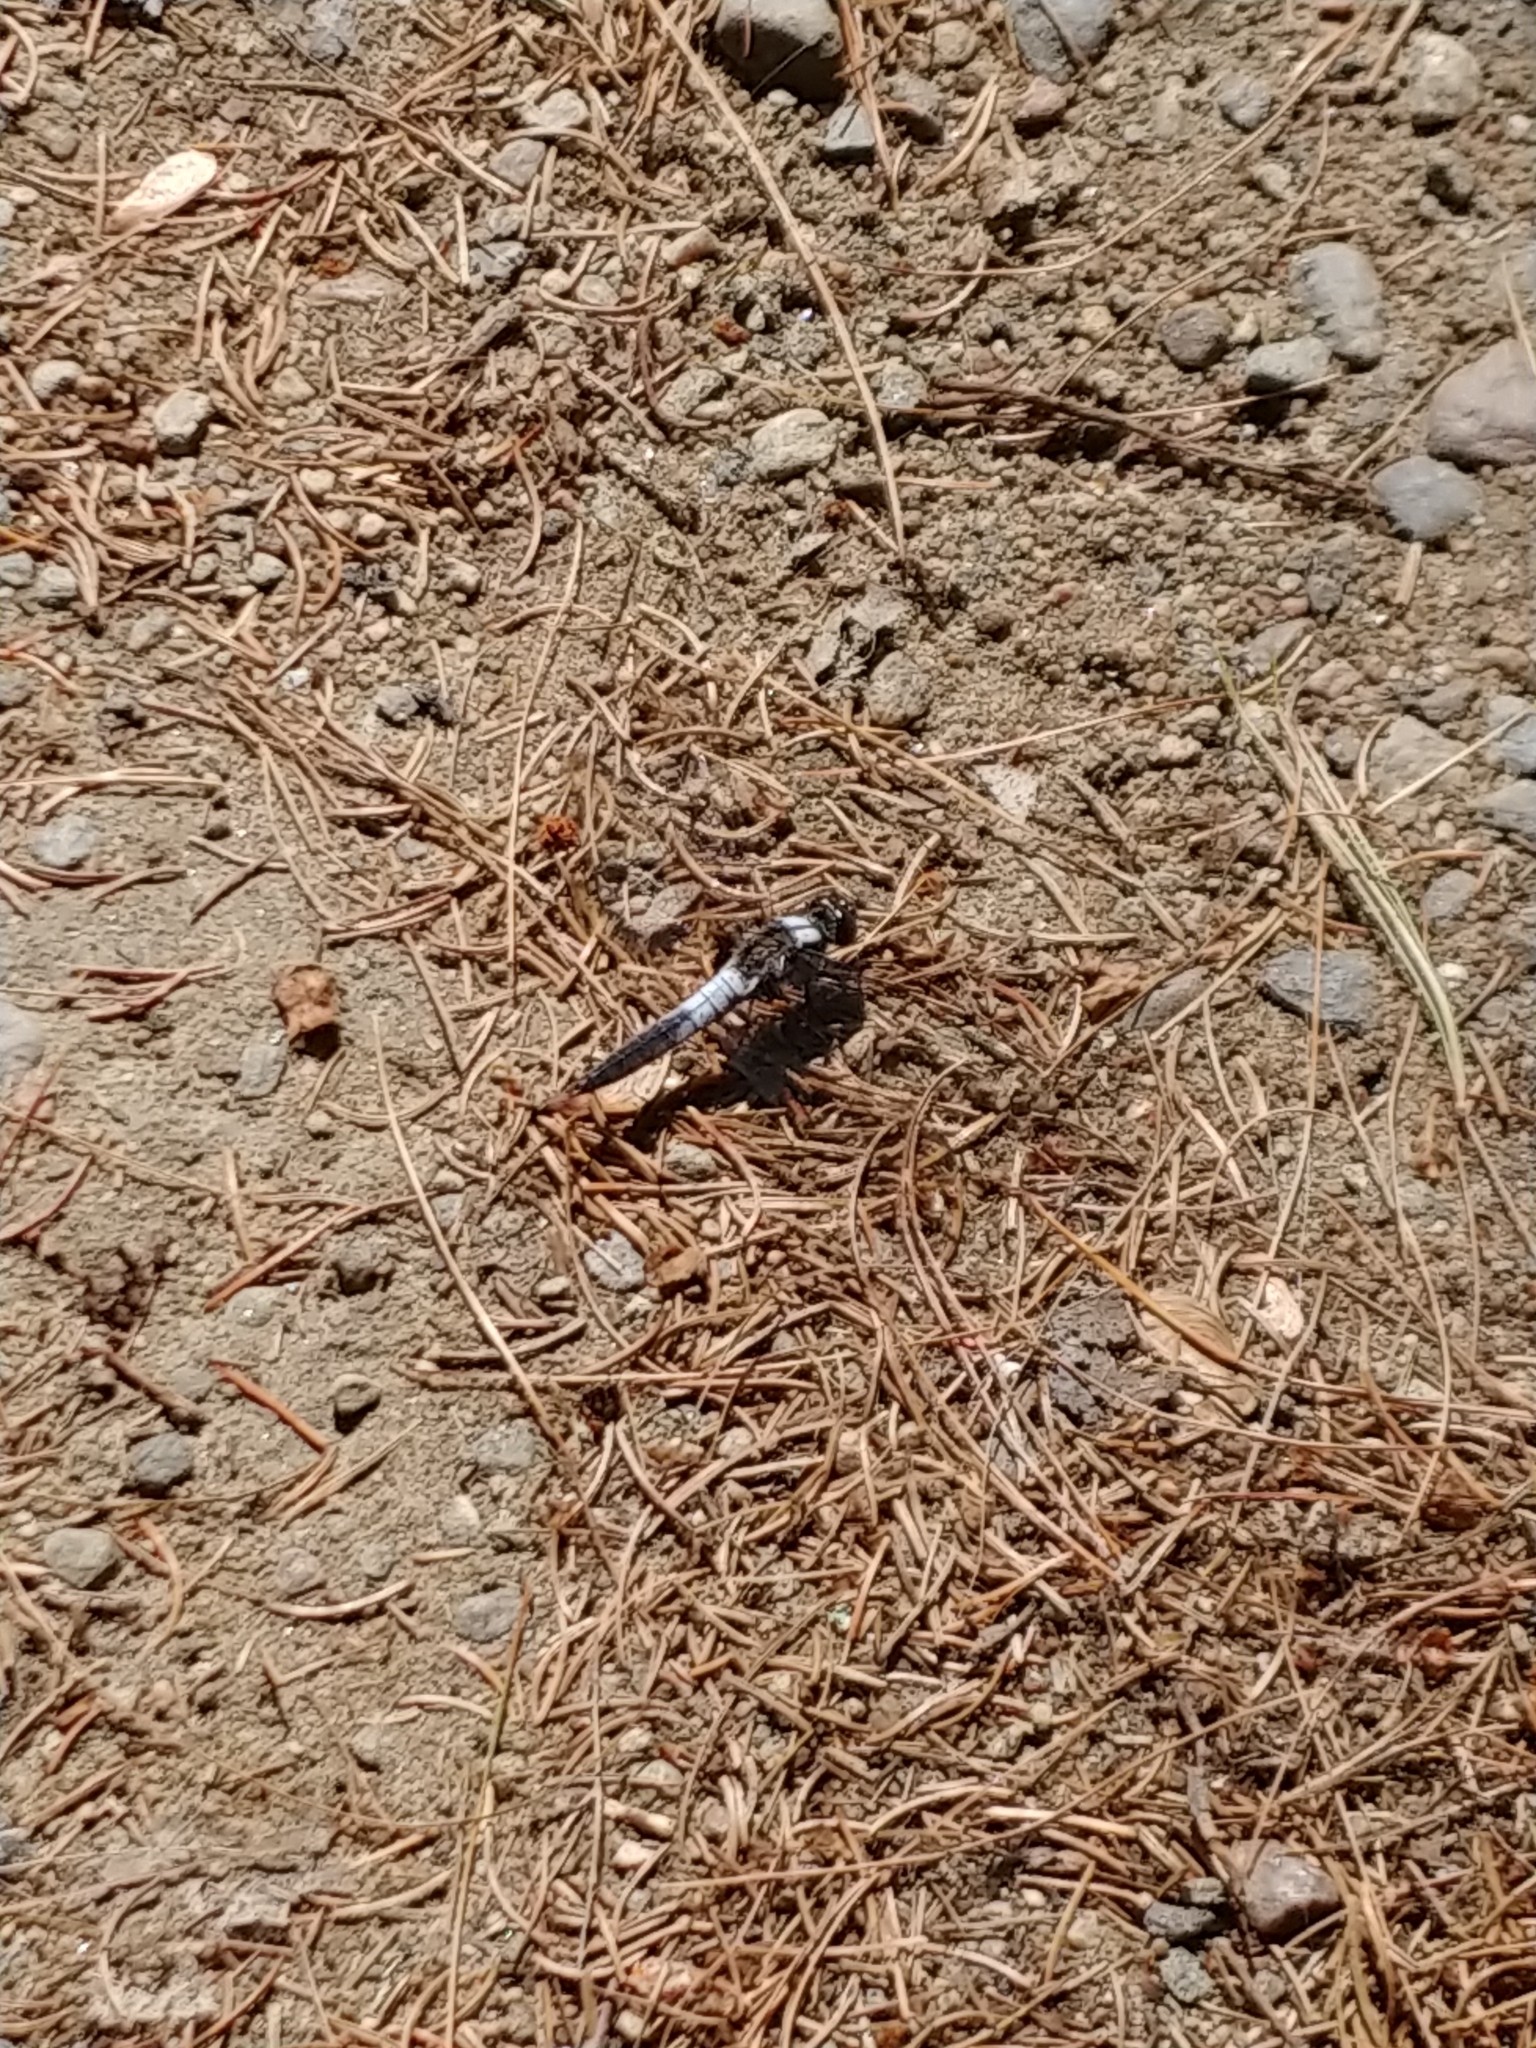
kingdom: Animalia
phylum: Arthropoda
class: Insecta
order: Odonata
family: Libellulidae
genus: Ladona
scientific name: Ladona julia
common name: Chalk-fronted corporal
